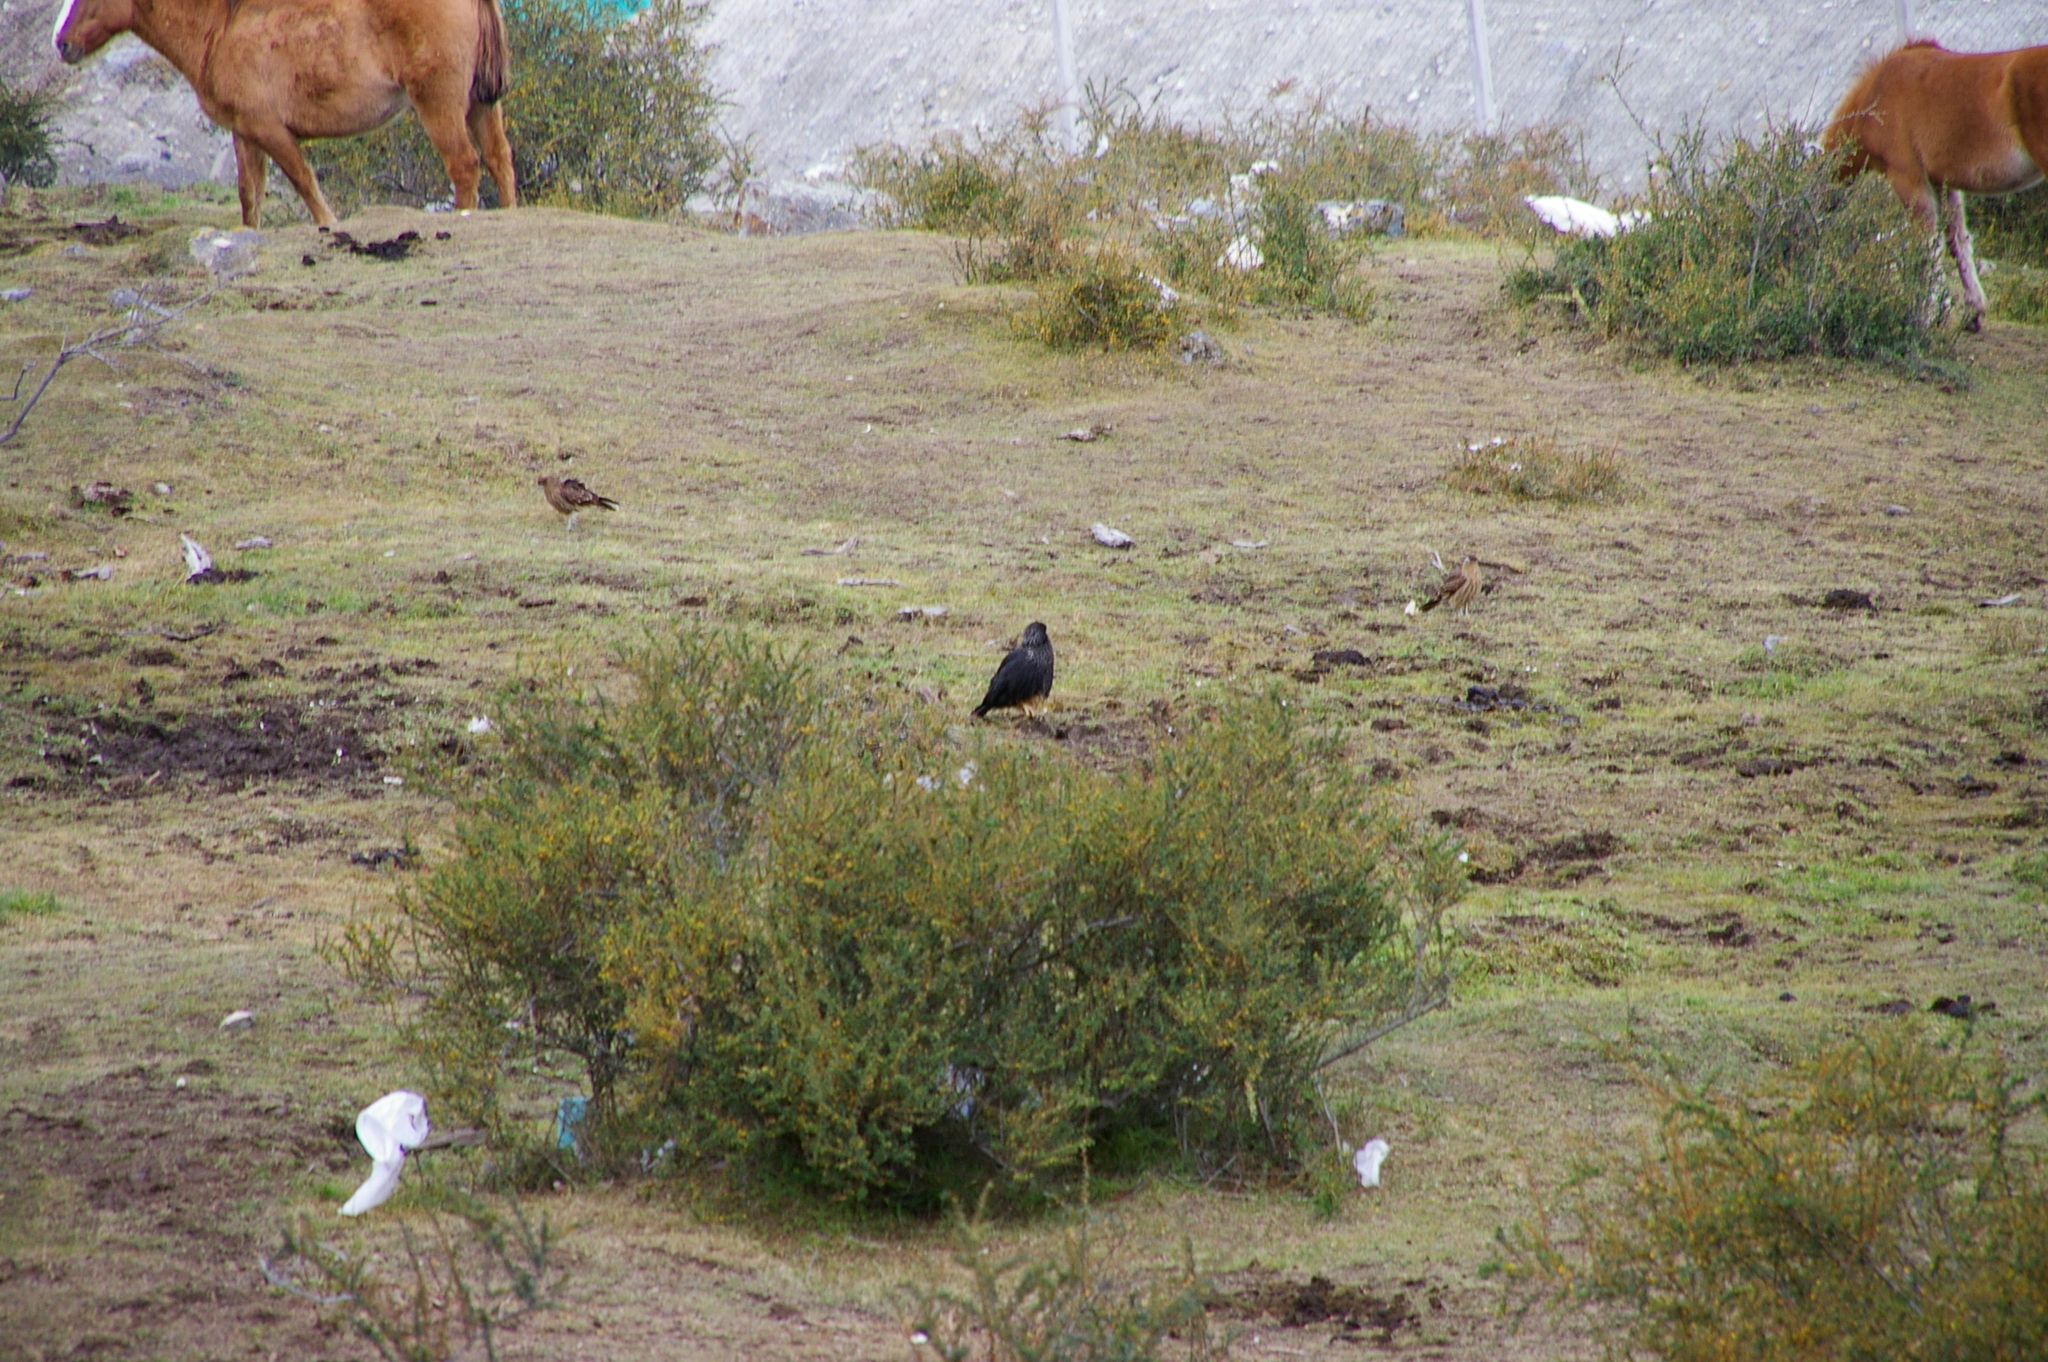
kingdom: Animalia
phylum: Chordata
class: Aves
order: Falconiformes
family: Falconidae
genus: Daptrius
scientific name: Daptrius
